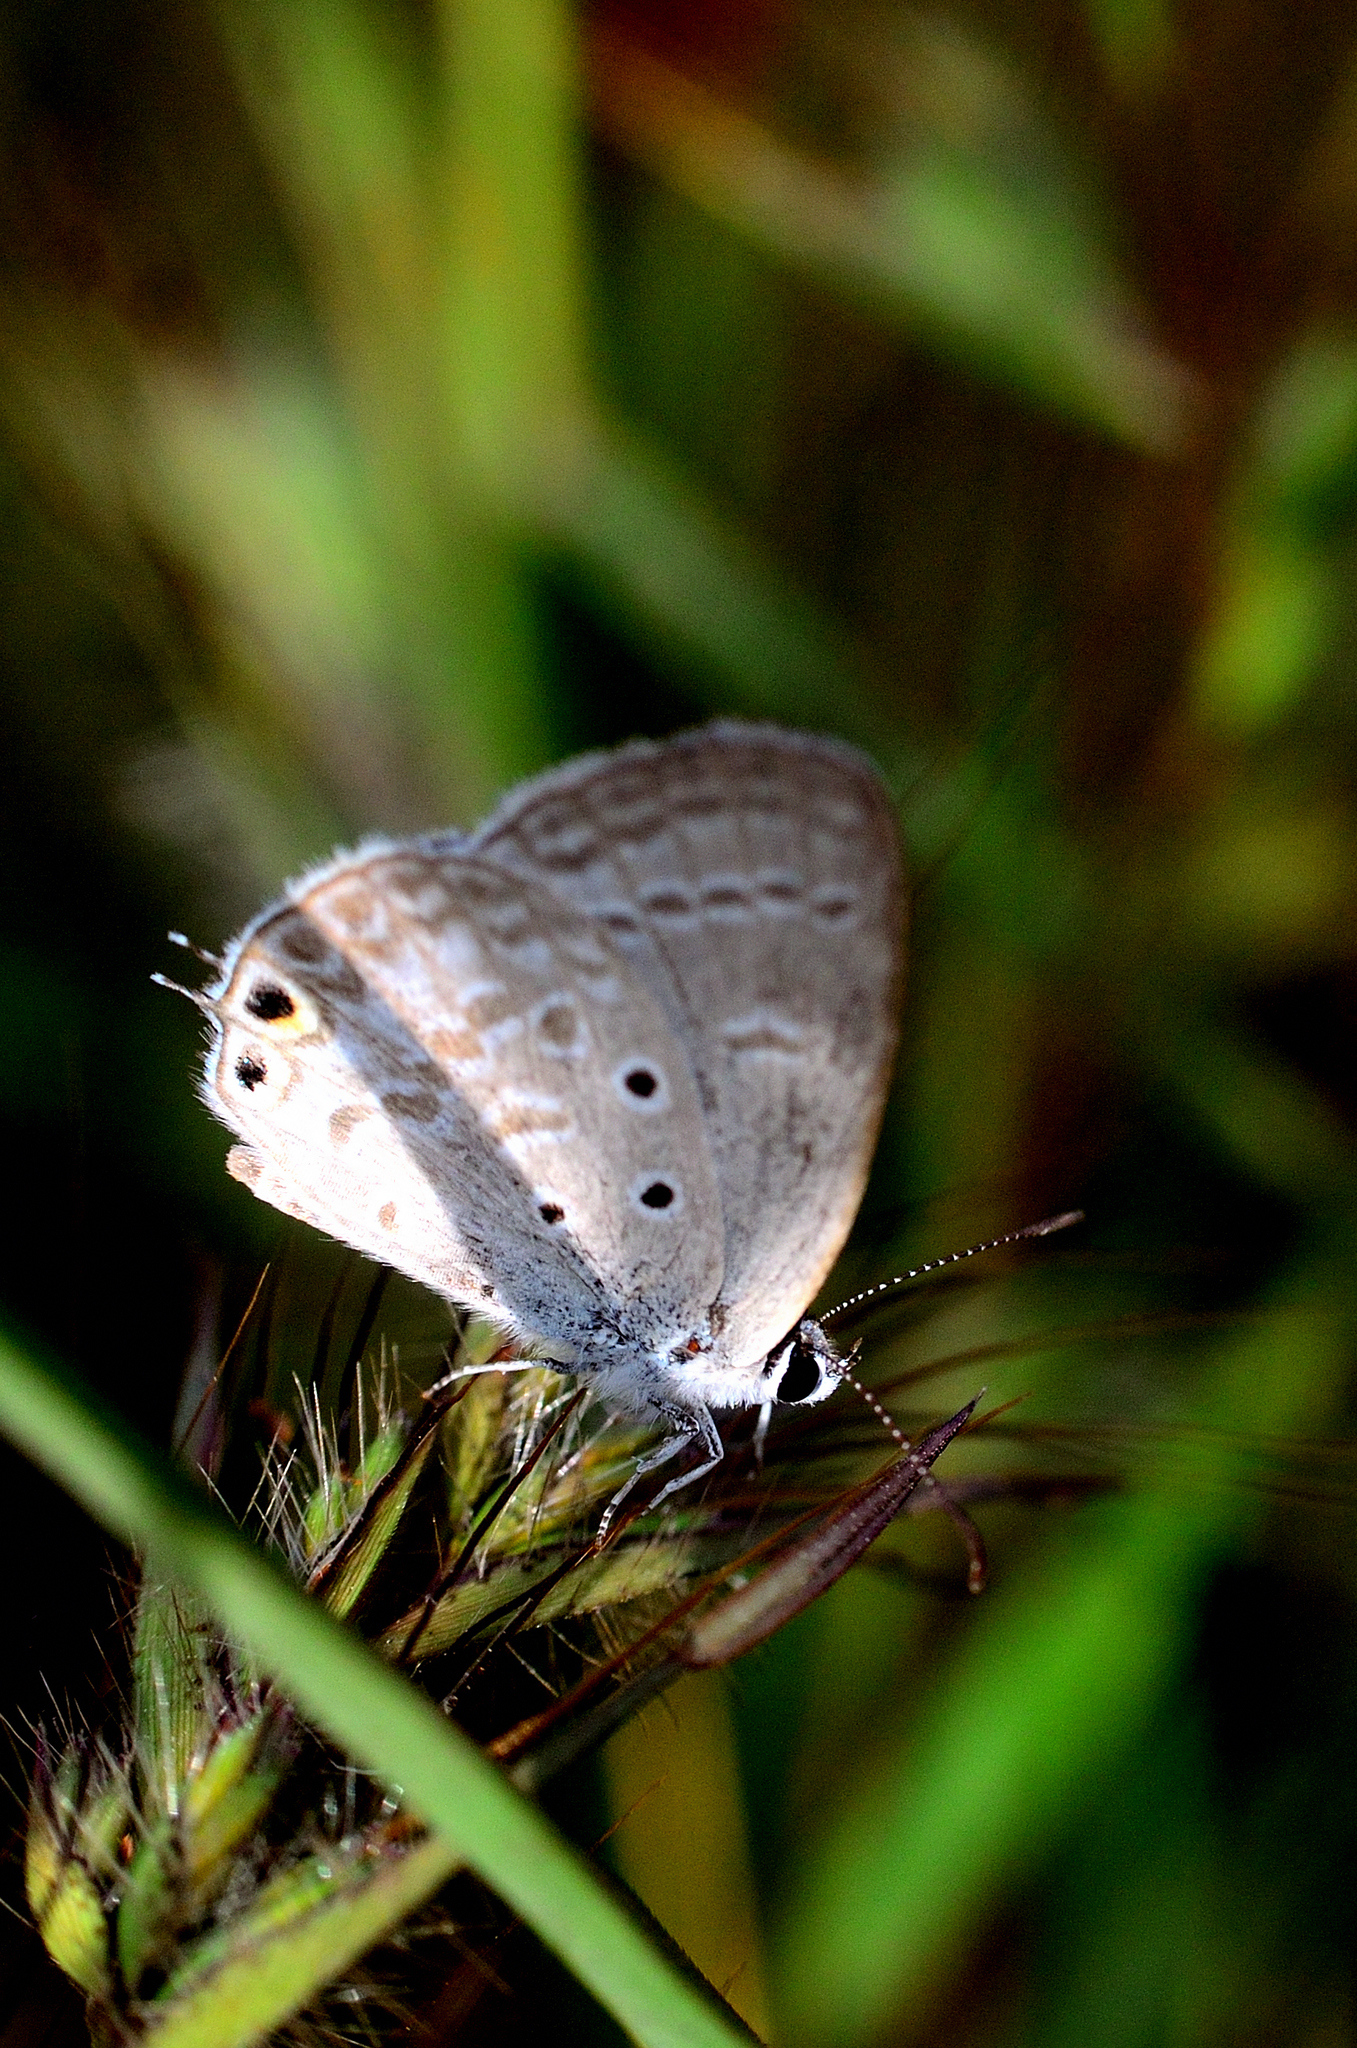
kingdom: Animalia
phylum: Arthropoda
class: Insecta
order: Lepidoptera
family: Lycaenidae
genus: Euchrysops
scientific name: Euchrysops cnejus
